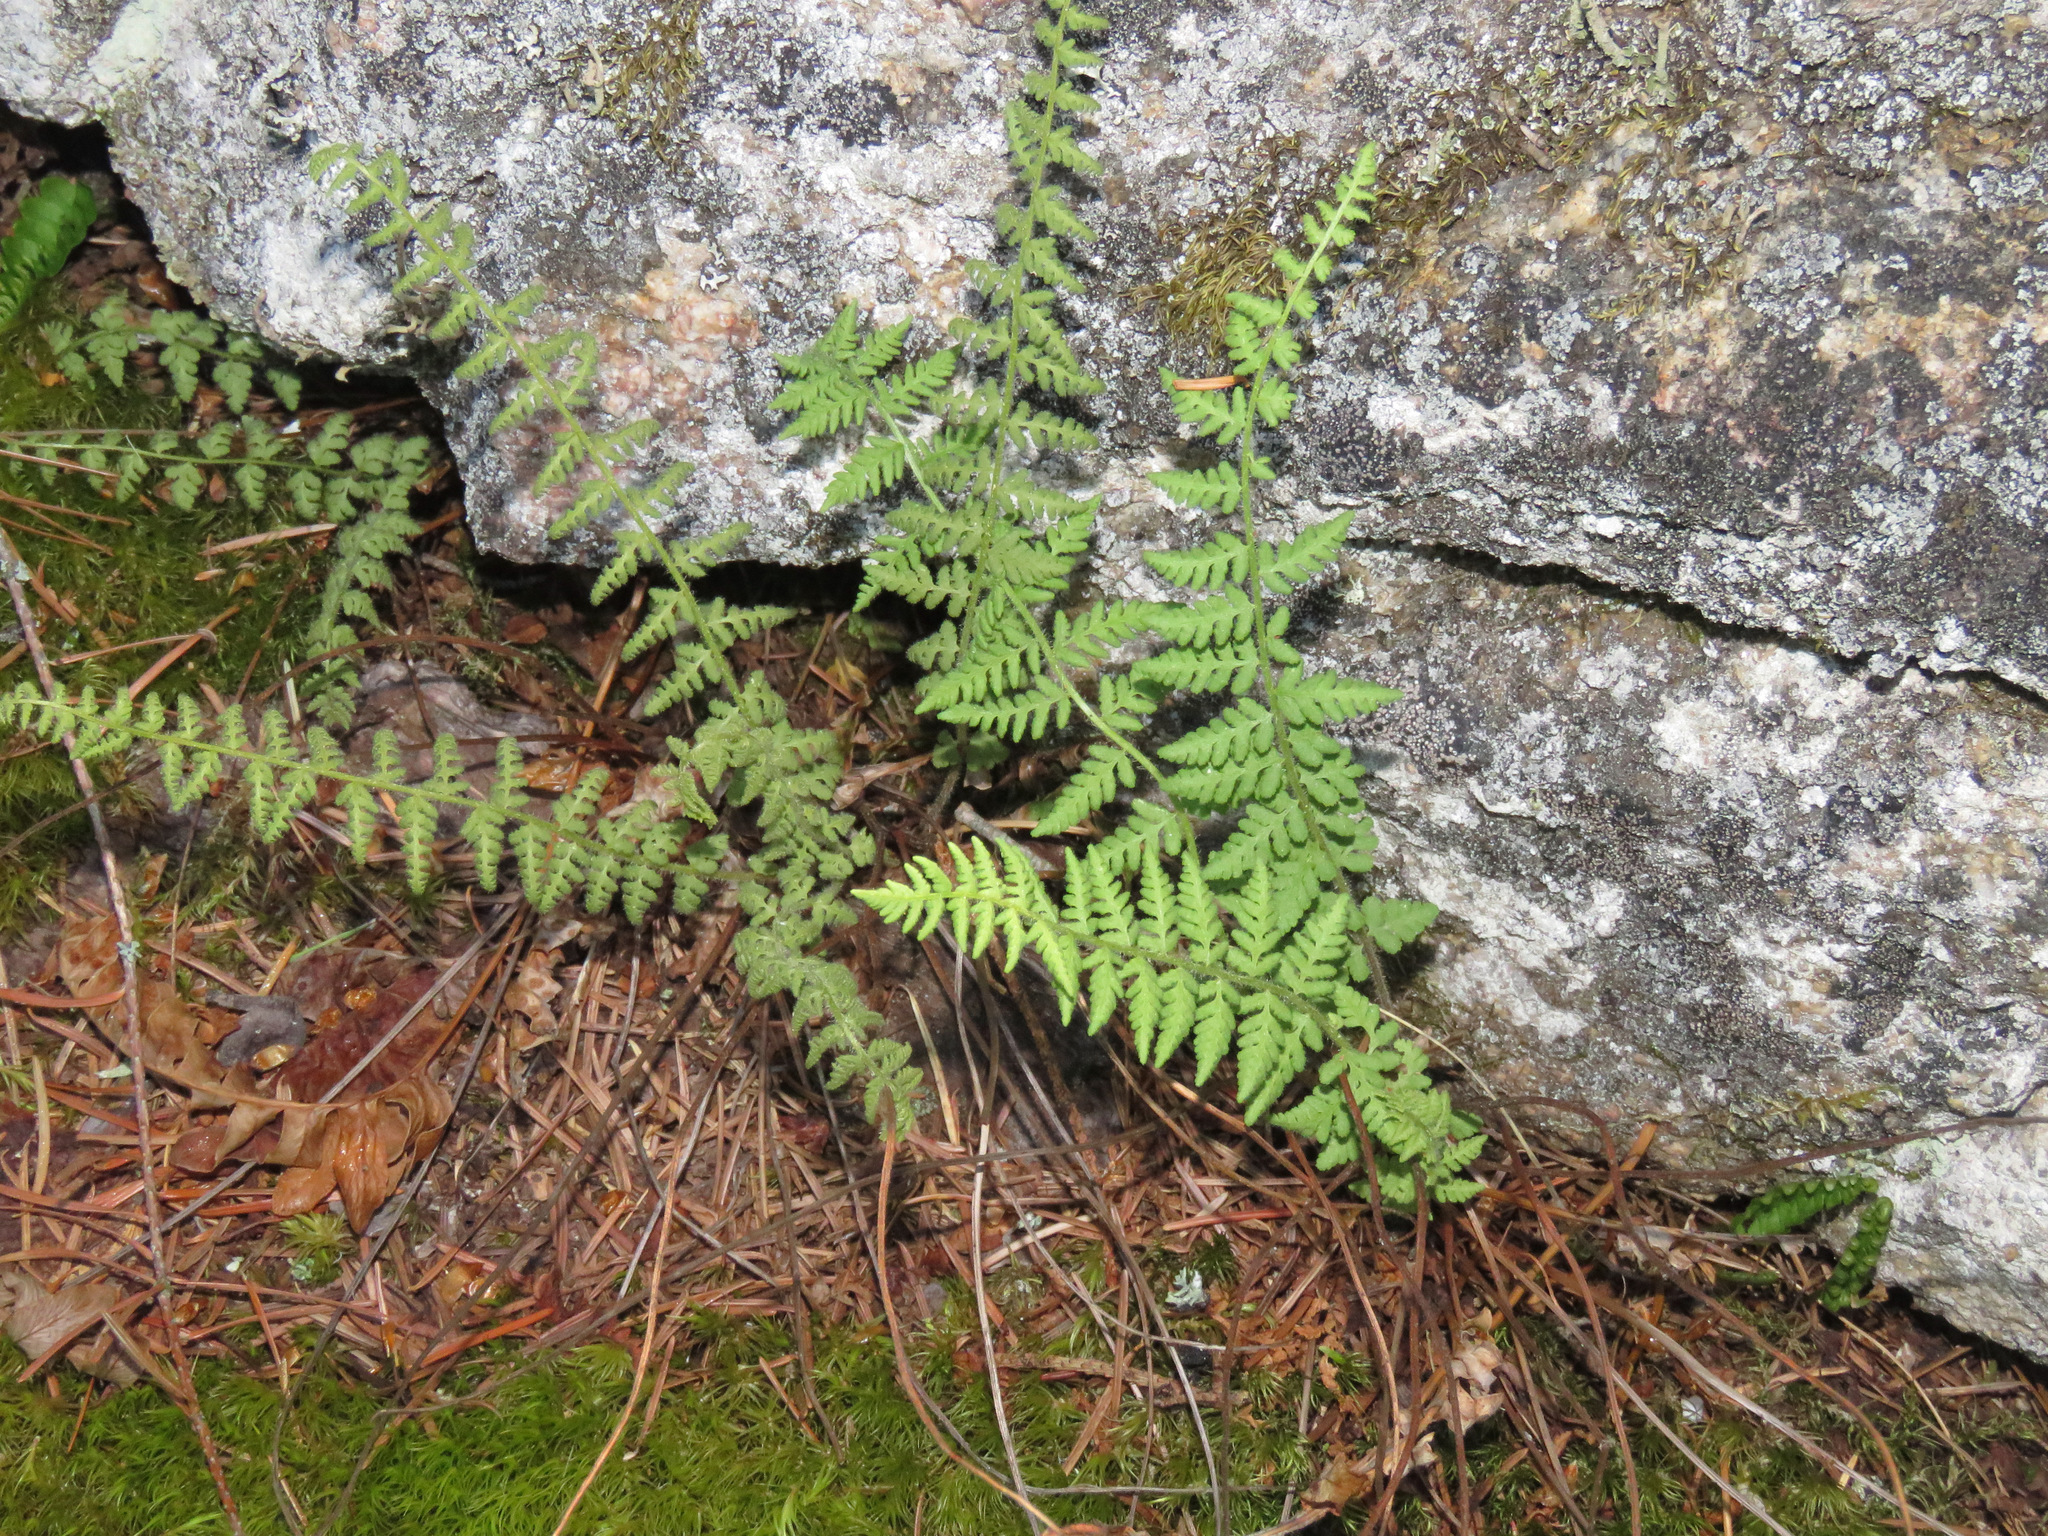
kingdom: Plantae
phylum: Tracheophyta
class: Polypodiopsida
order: Polypodiales
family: Woodsiaceae
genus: Physematium
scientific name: Physematium scopulinum
